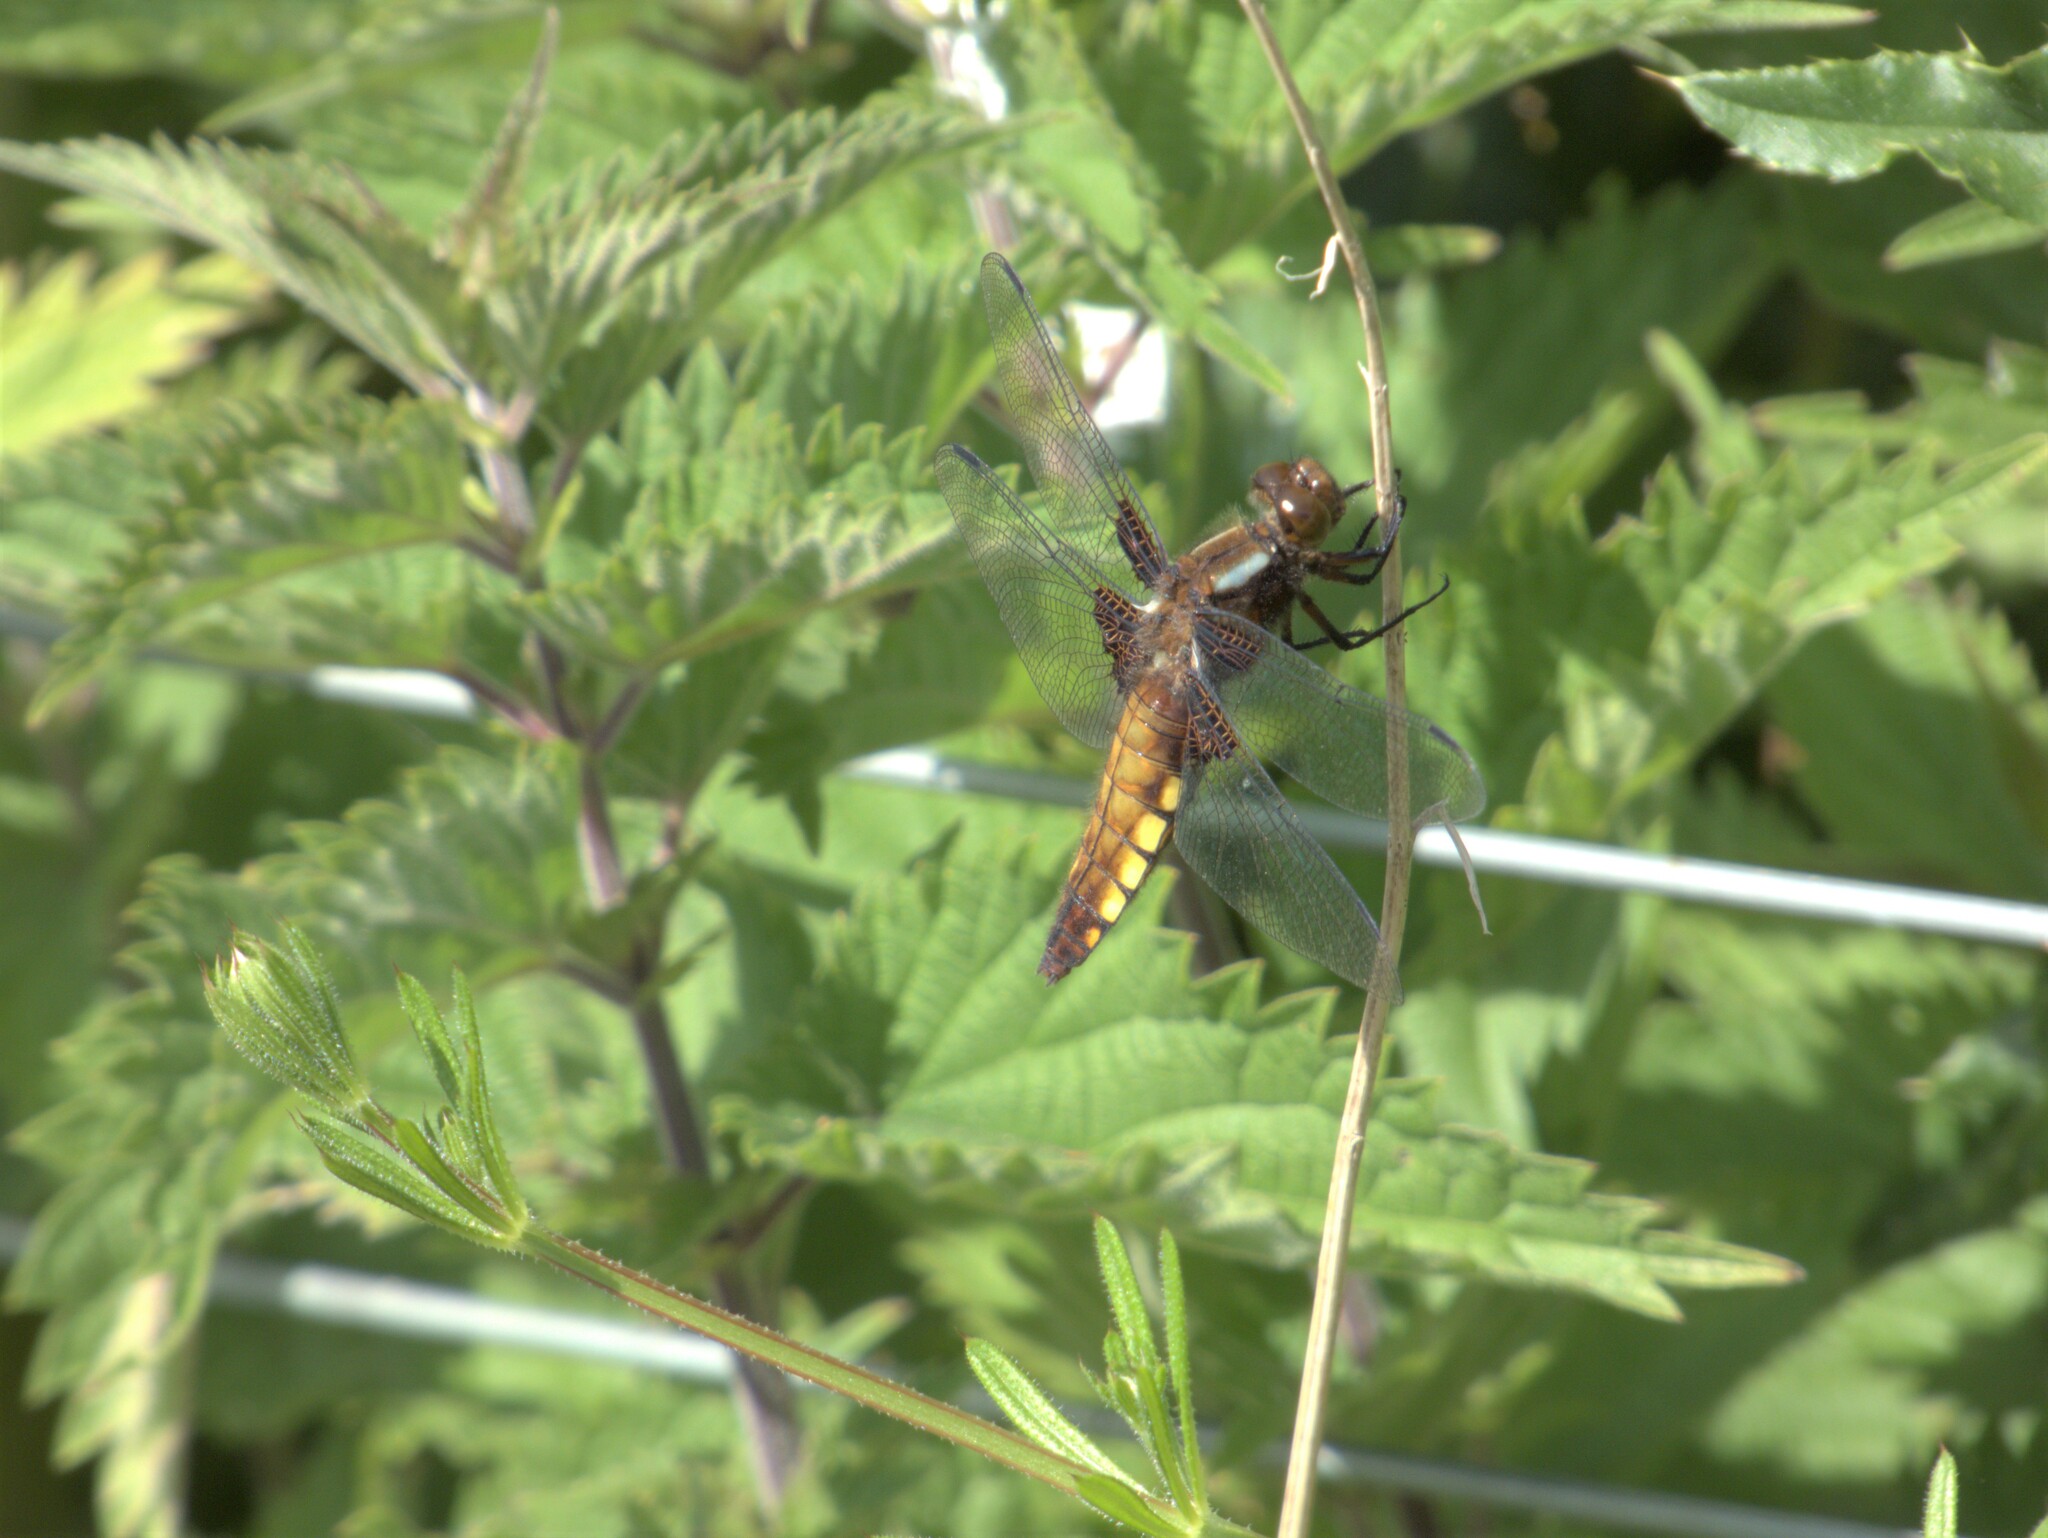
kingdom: Animalia
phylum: Arthropoda
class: Insecta
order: Odonata
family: Libellulidae
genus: Libellula
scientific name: Libellula depressa
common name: Broad-bodied chaser
